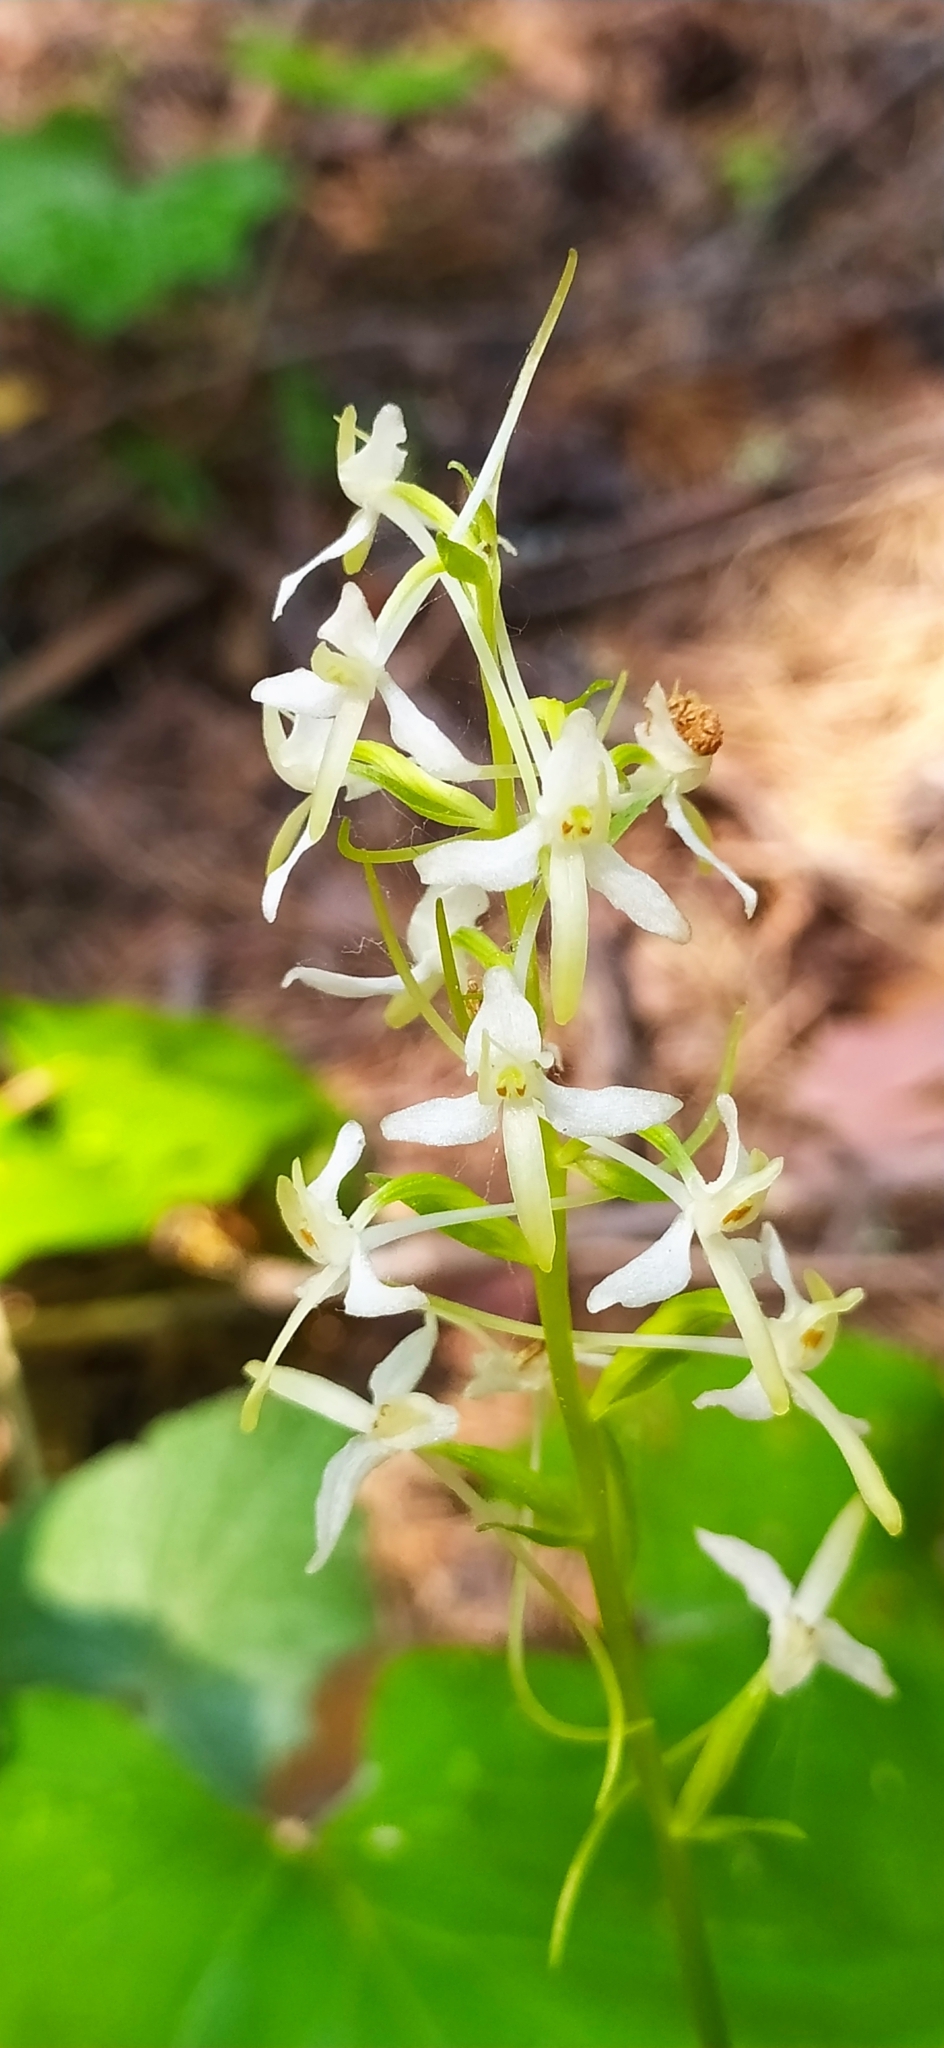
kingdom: Plantae
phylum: Tracheophyta
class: Liliopsida
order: Asparagales
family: Orchidaceae
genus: Platanthera
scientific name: Platanthera bifolia
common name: Lesser butterfly-orchid
